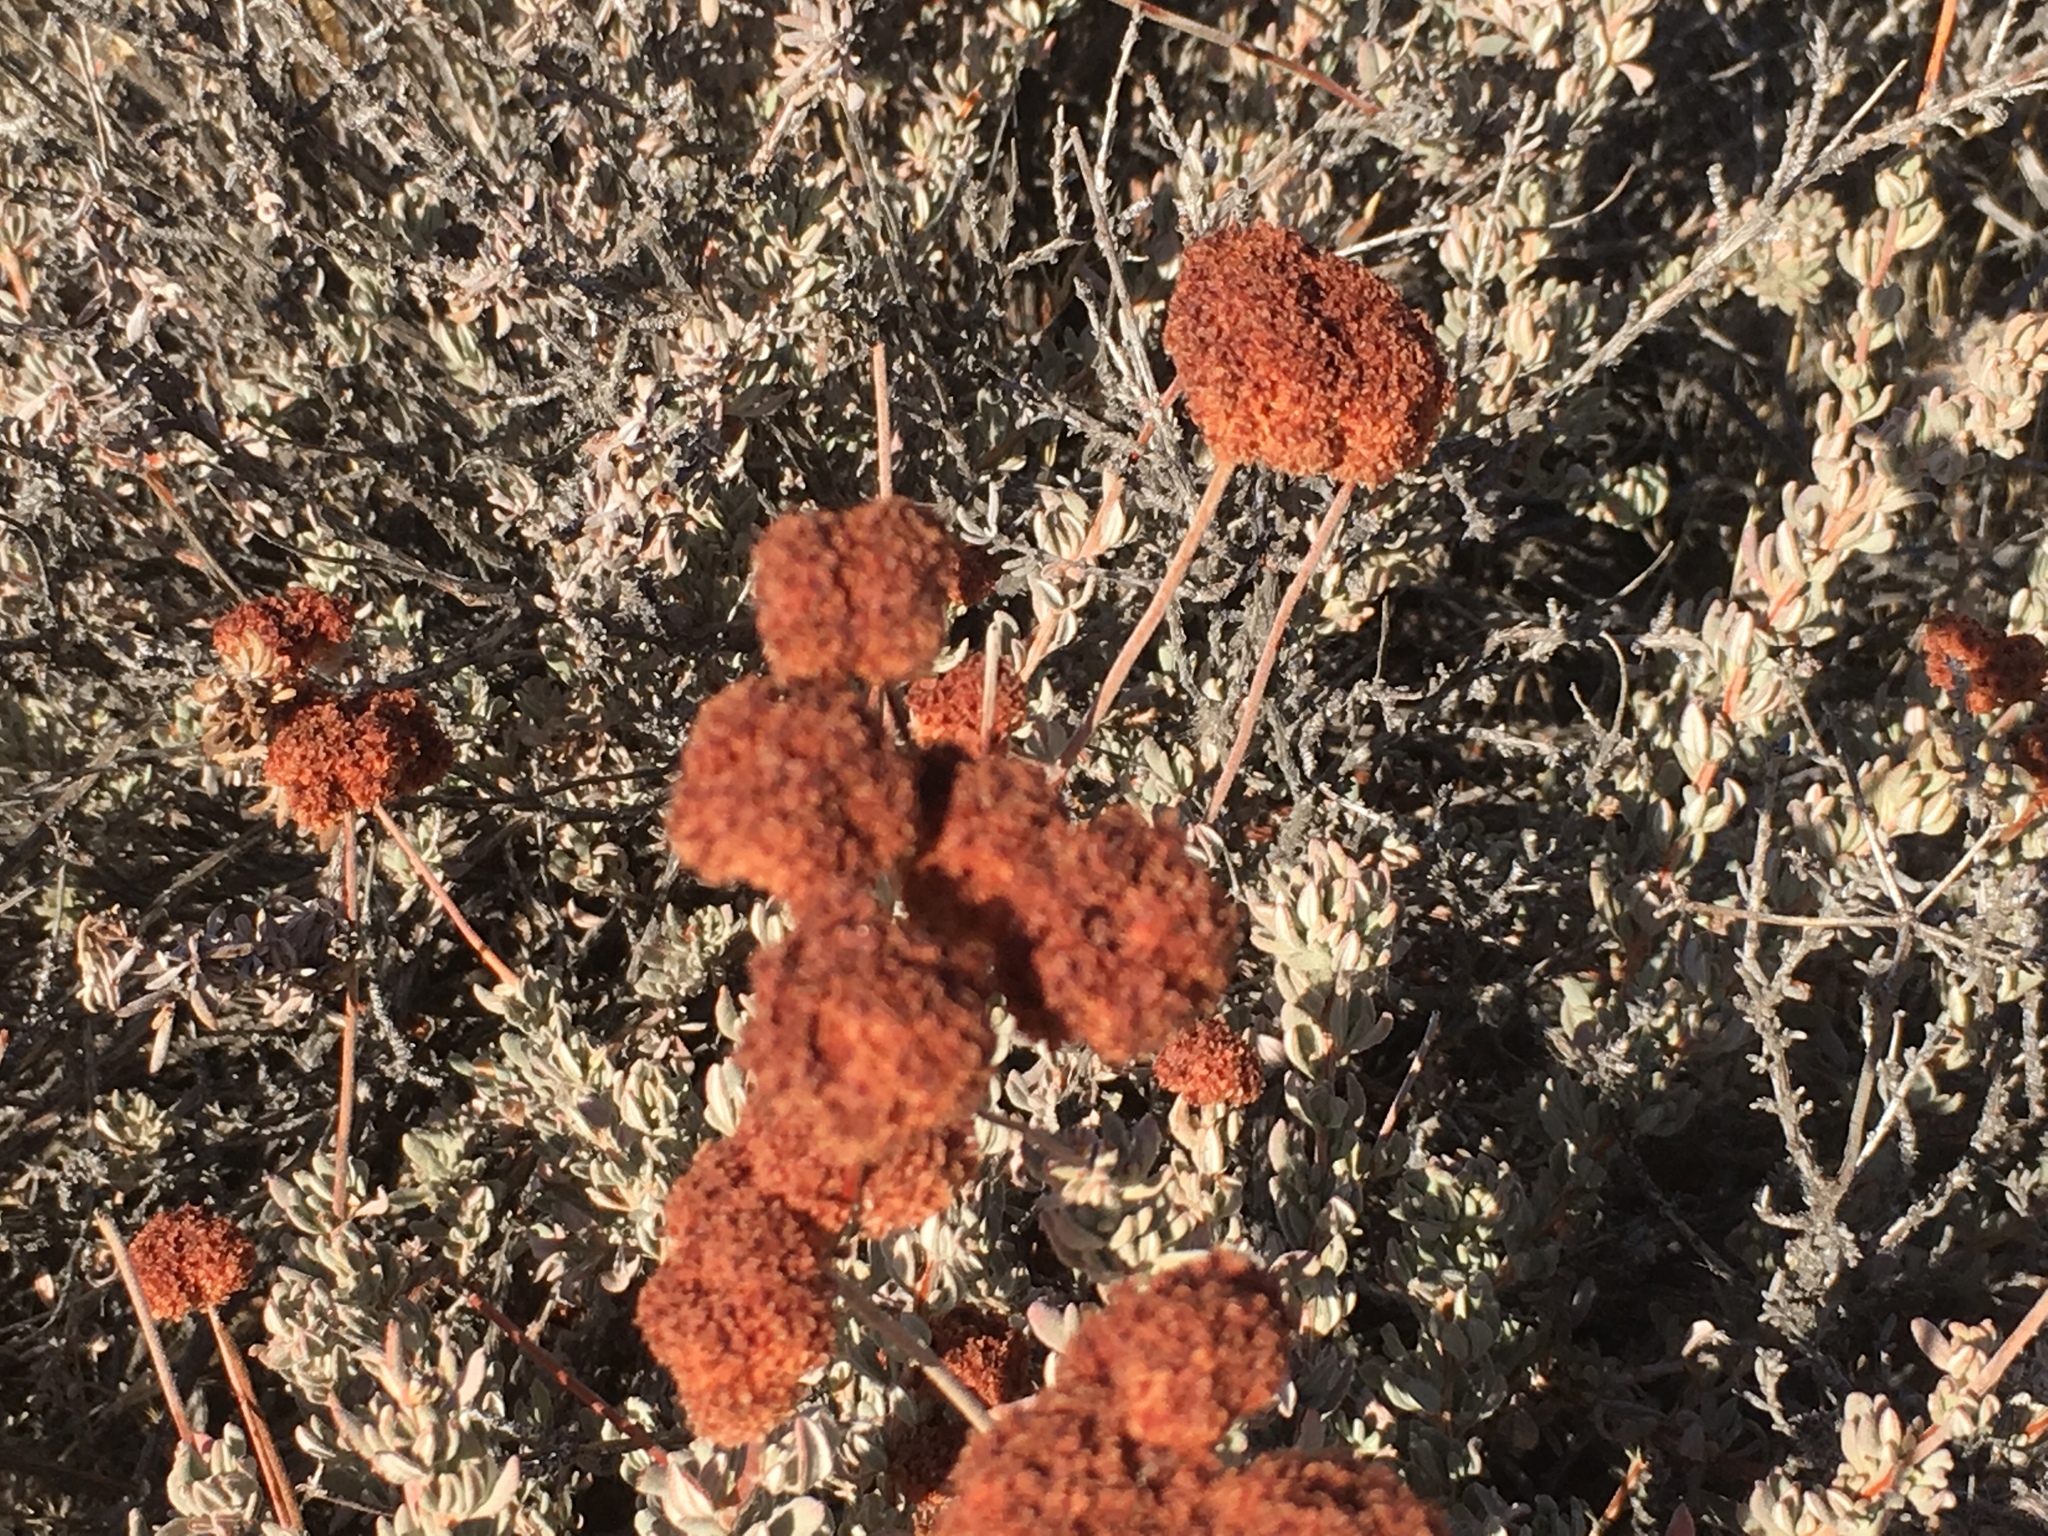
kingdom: Plantae
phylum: Tracheophyta
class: Magnoliopsida
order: Caryophyllales
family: Polygonaceae
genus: Eriogonum
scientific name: Eriogonum fasciculatum
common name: California wild buckwheat
